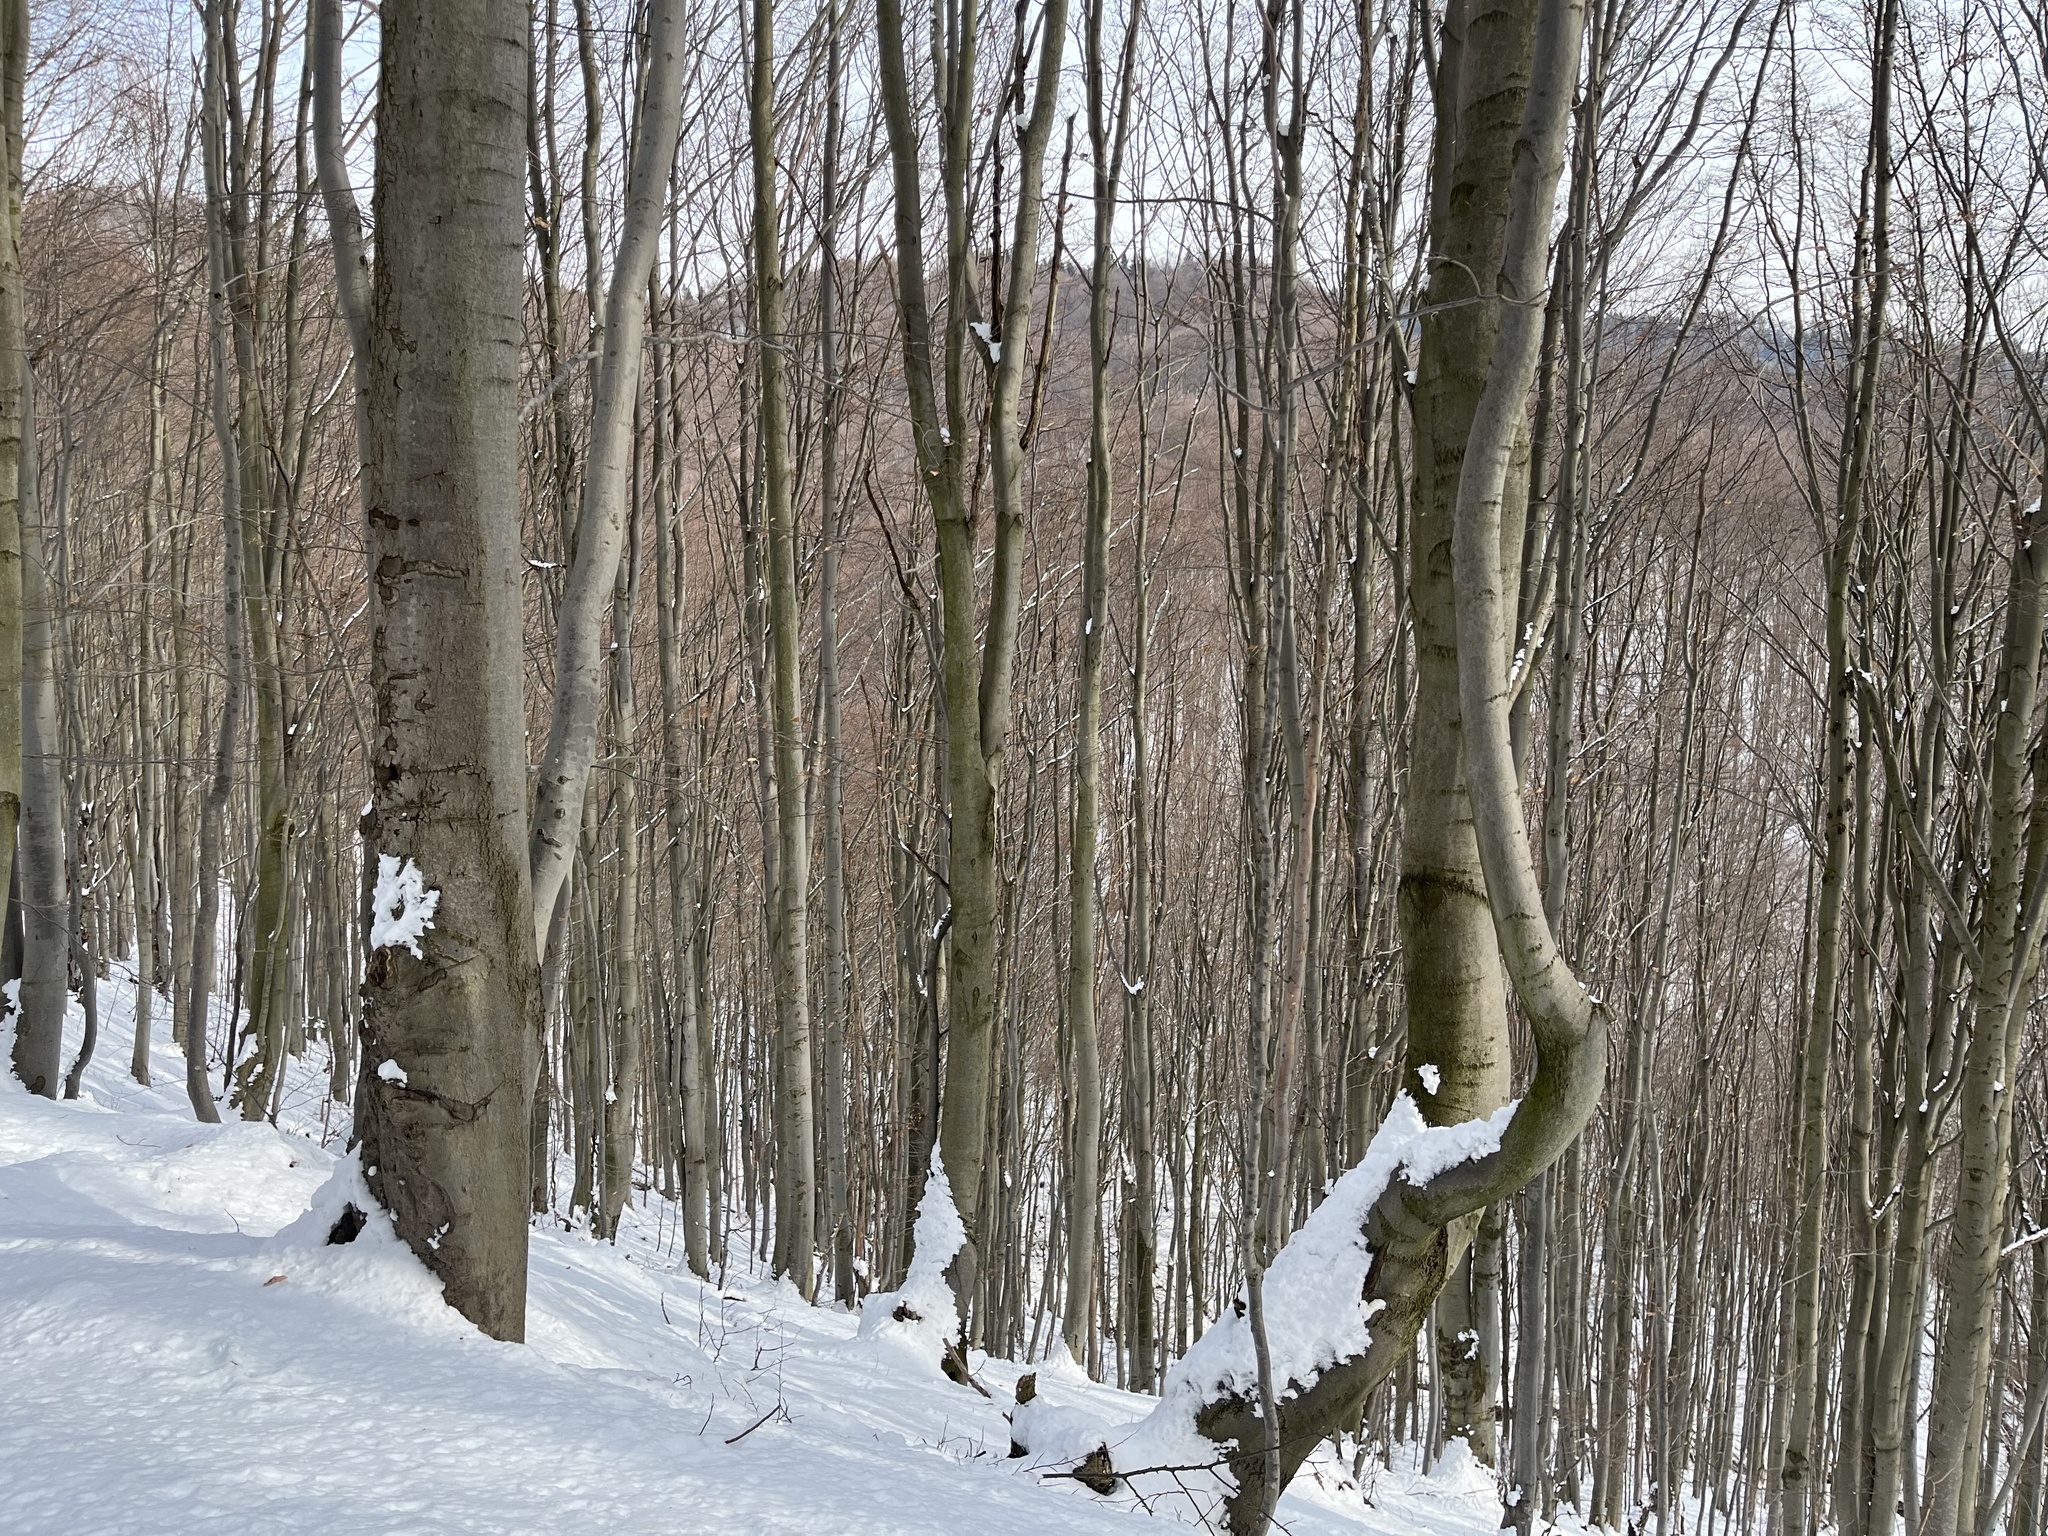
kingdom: Plantae
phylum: Tracheophyta
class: Magnoliopsida
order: Fagales
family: Fagaceae
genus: Fagus
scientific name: Fagus sylvatica
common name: Beech
